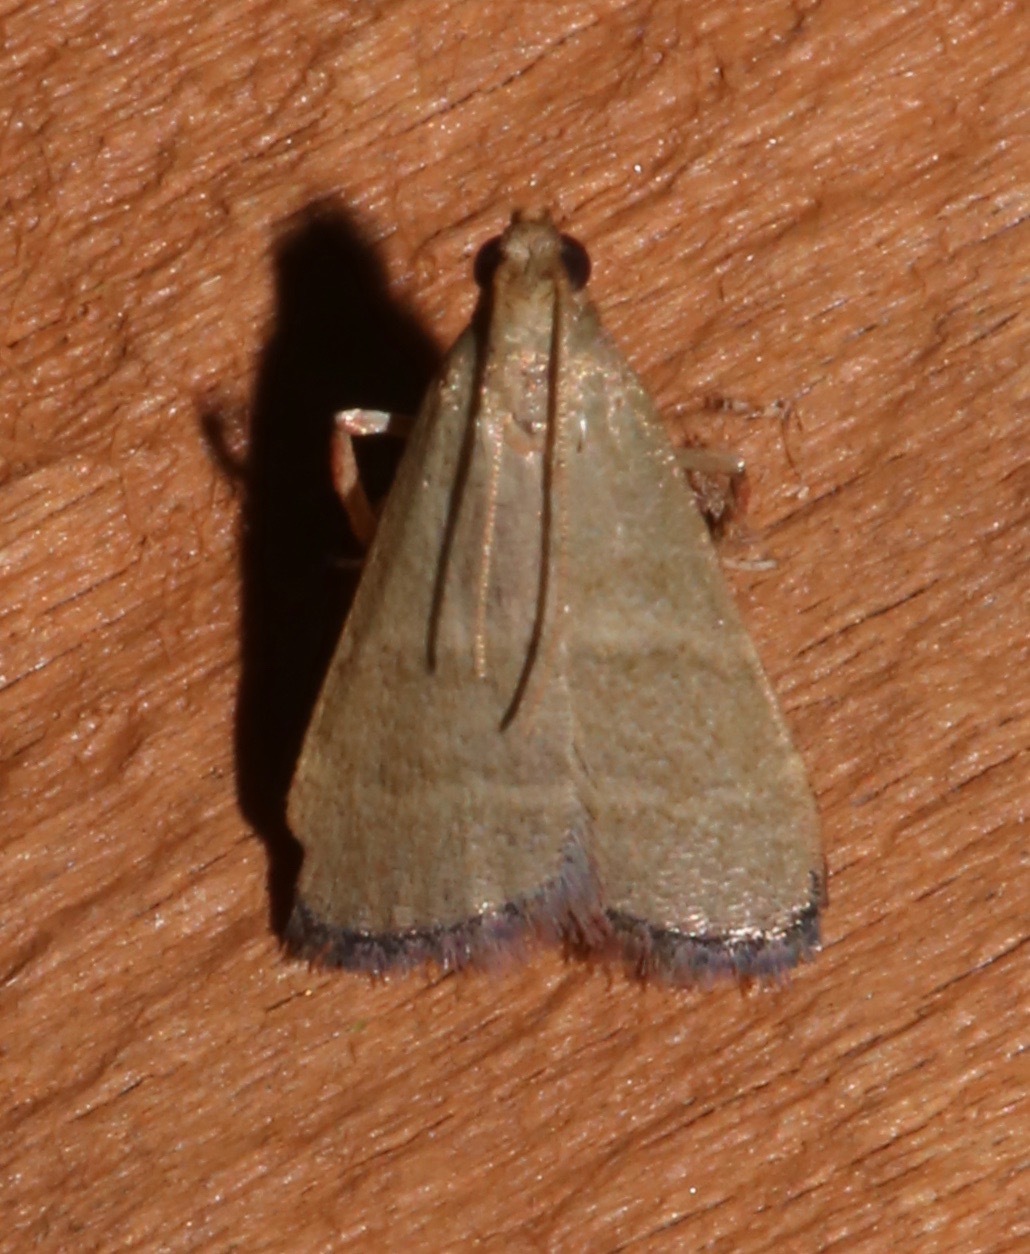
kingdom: Animalia
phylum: Arthropoda
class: Insecta
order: Lepidoptera
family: Pyralidae
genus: Arta
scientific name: Arta olivalis
